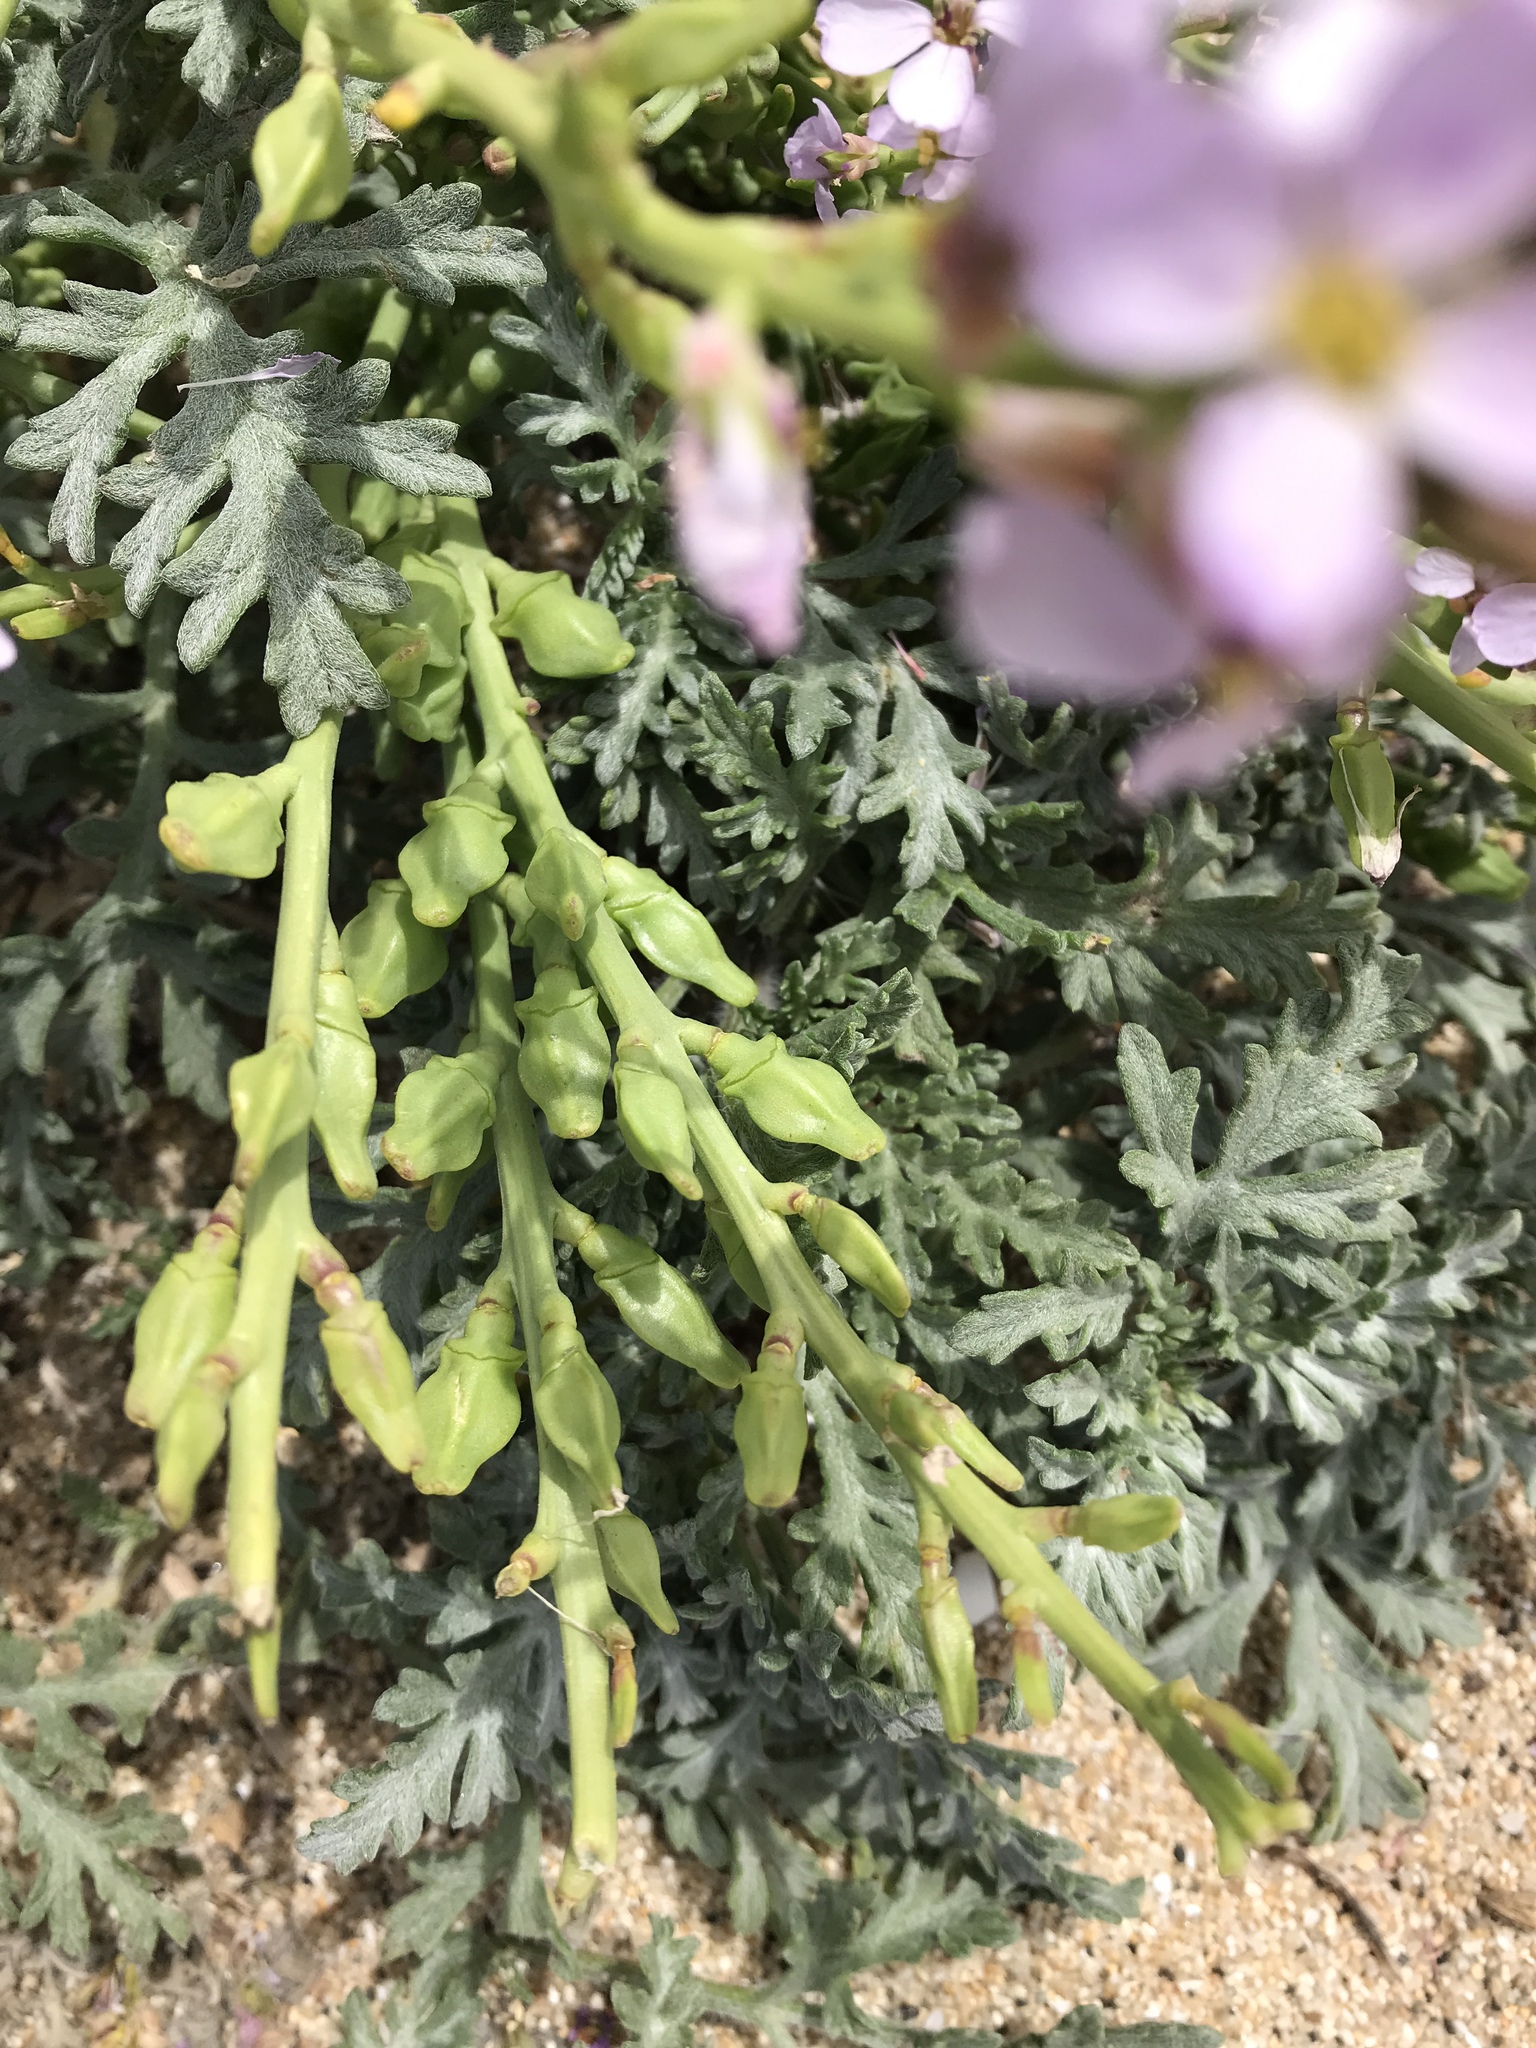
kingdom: Plantae
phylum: Tracheophyta
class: Magnoliopsida
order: Brassicales
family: Brassicaceae
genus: Cakile
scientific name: Cakile maritima
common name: Sea rocket
